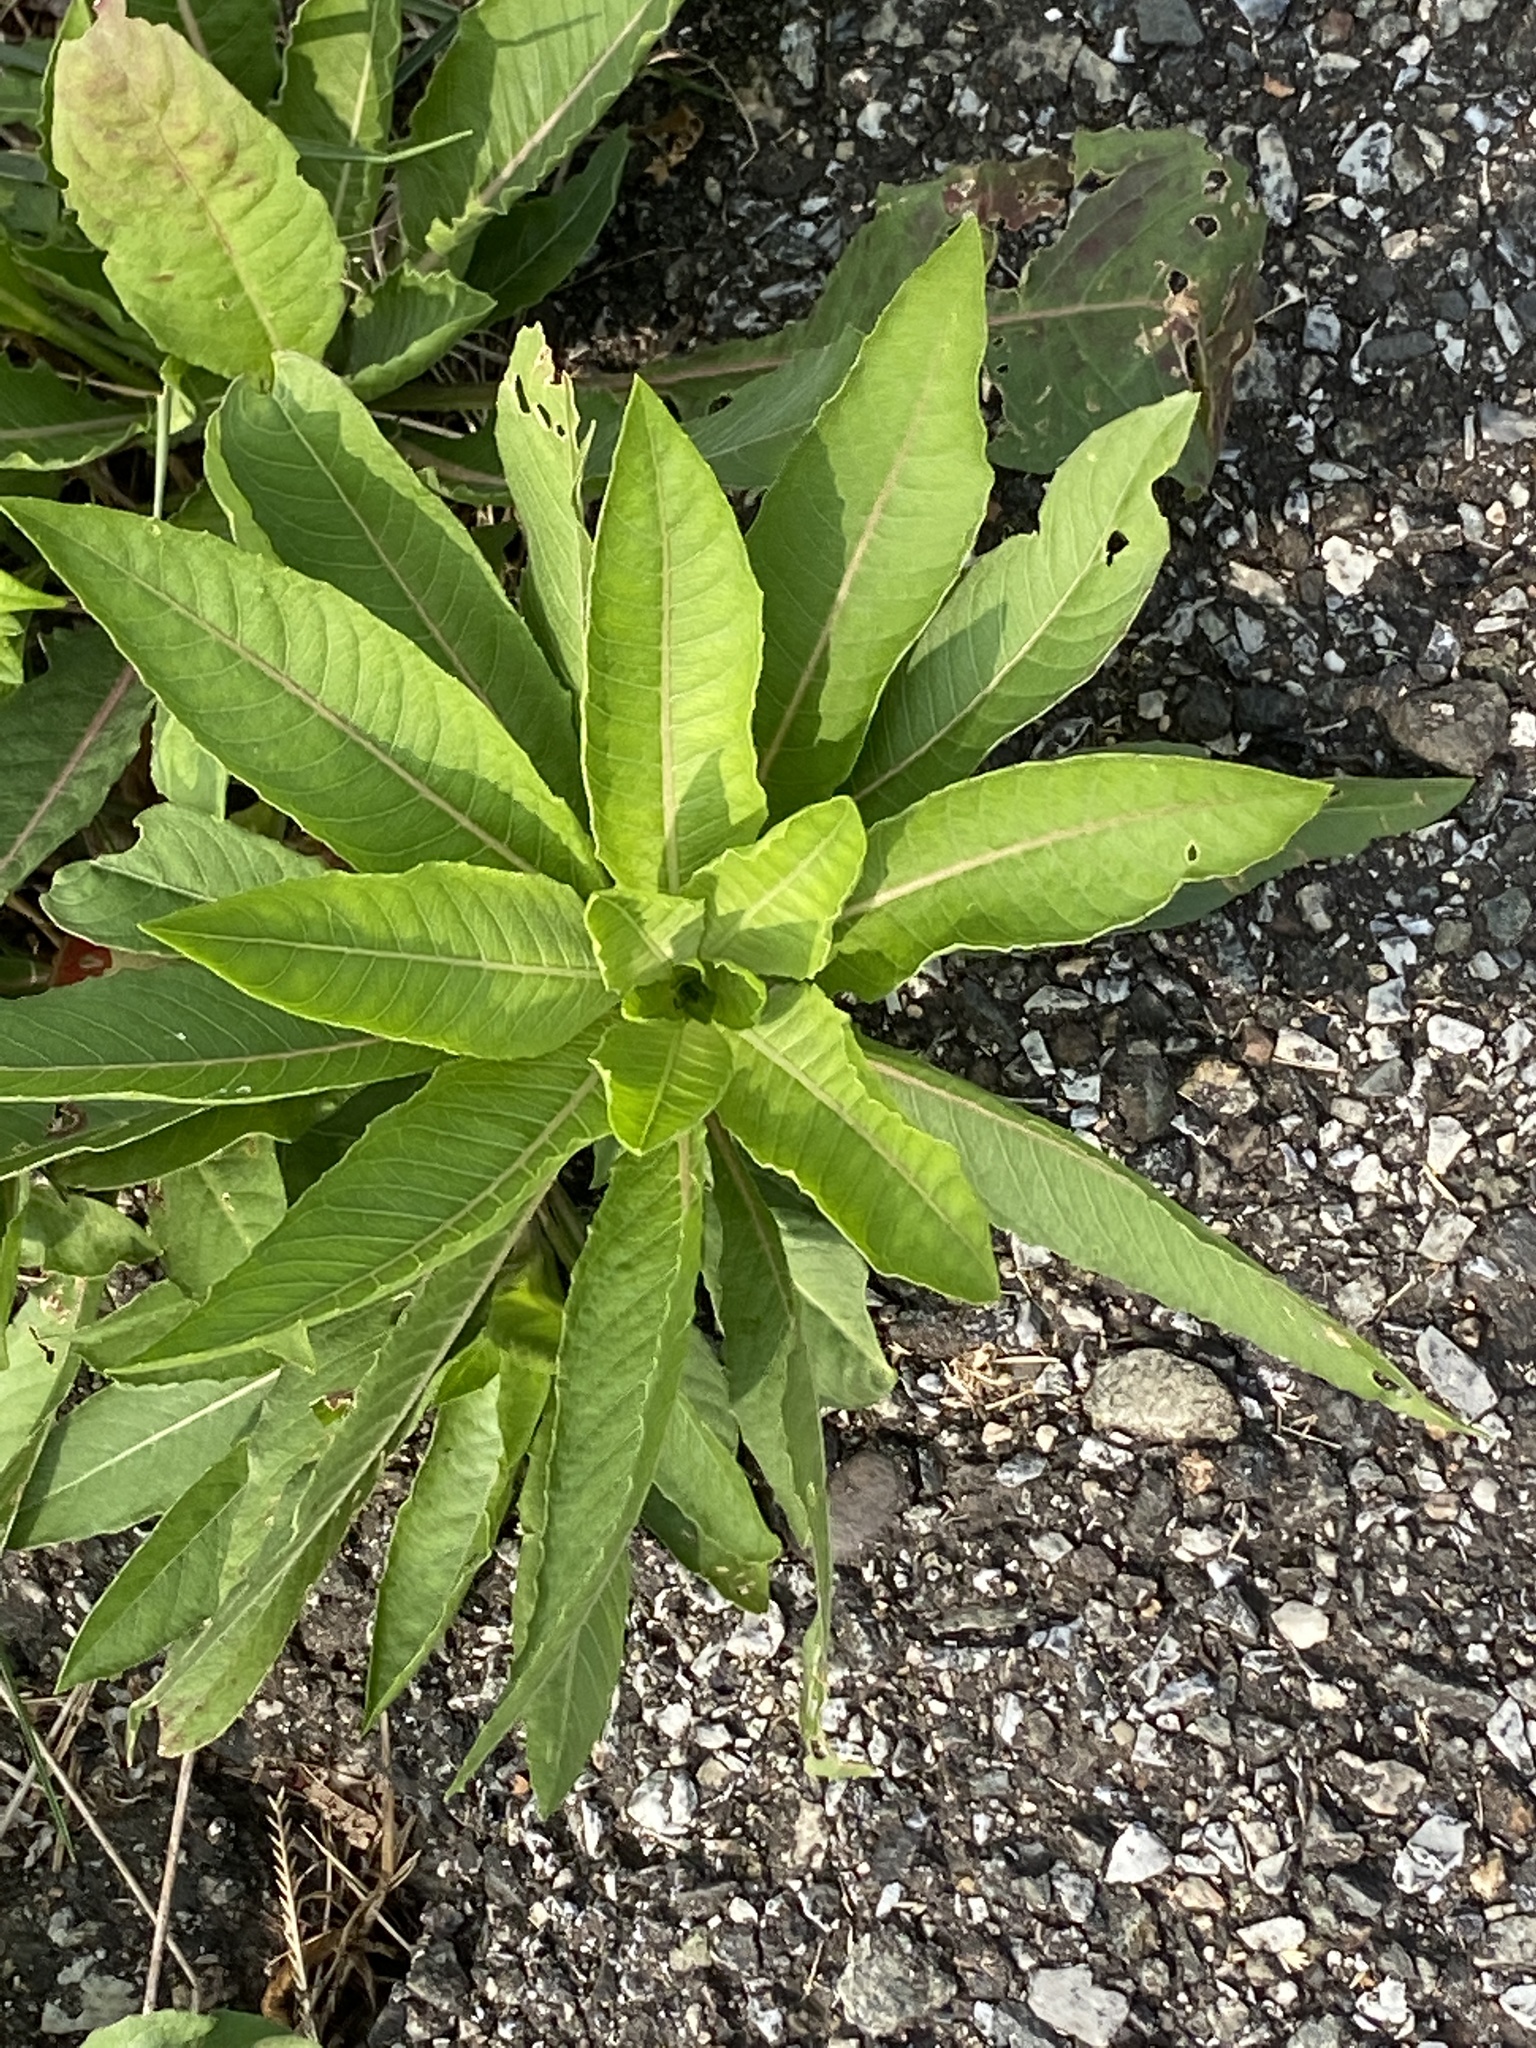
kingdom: Plantae
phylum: Tracheophyta
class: Magnoliopsida
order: Myrtales
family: Onagraceae
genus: Oenothera
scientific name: Oenothera biennis
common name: Common evening-primrose
